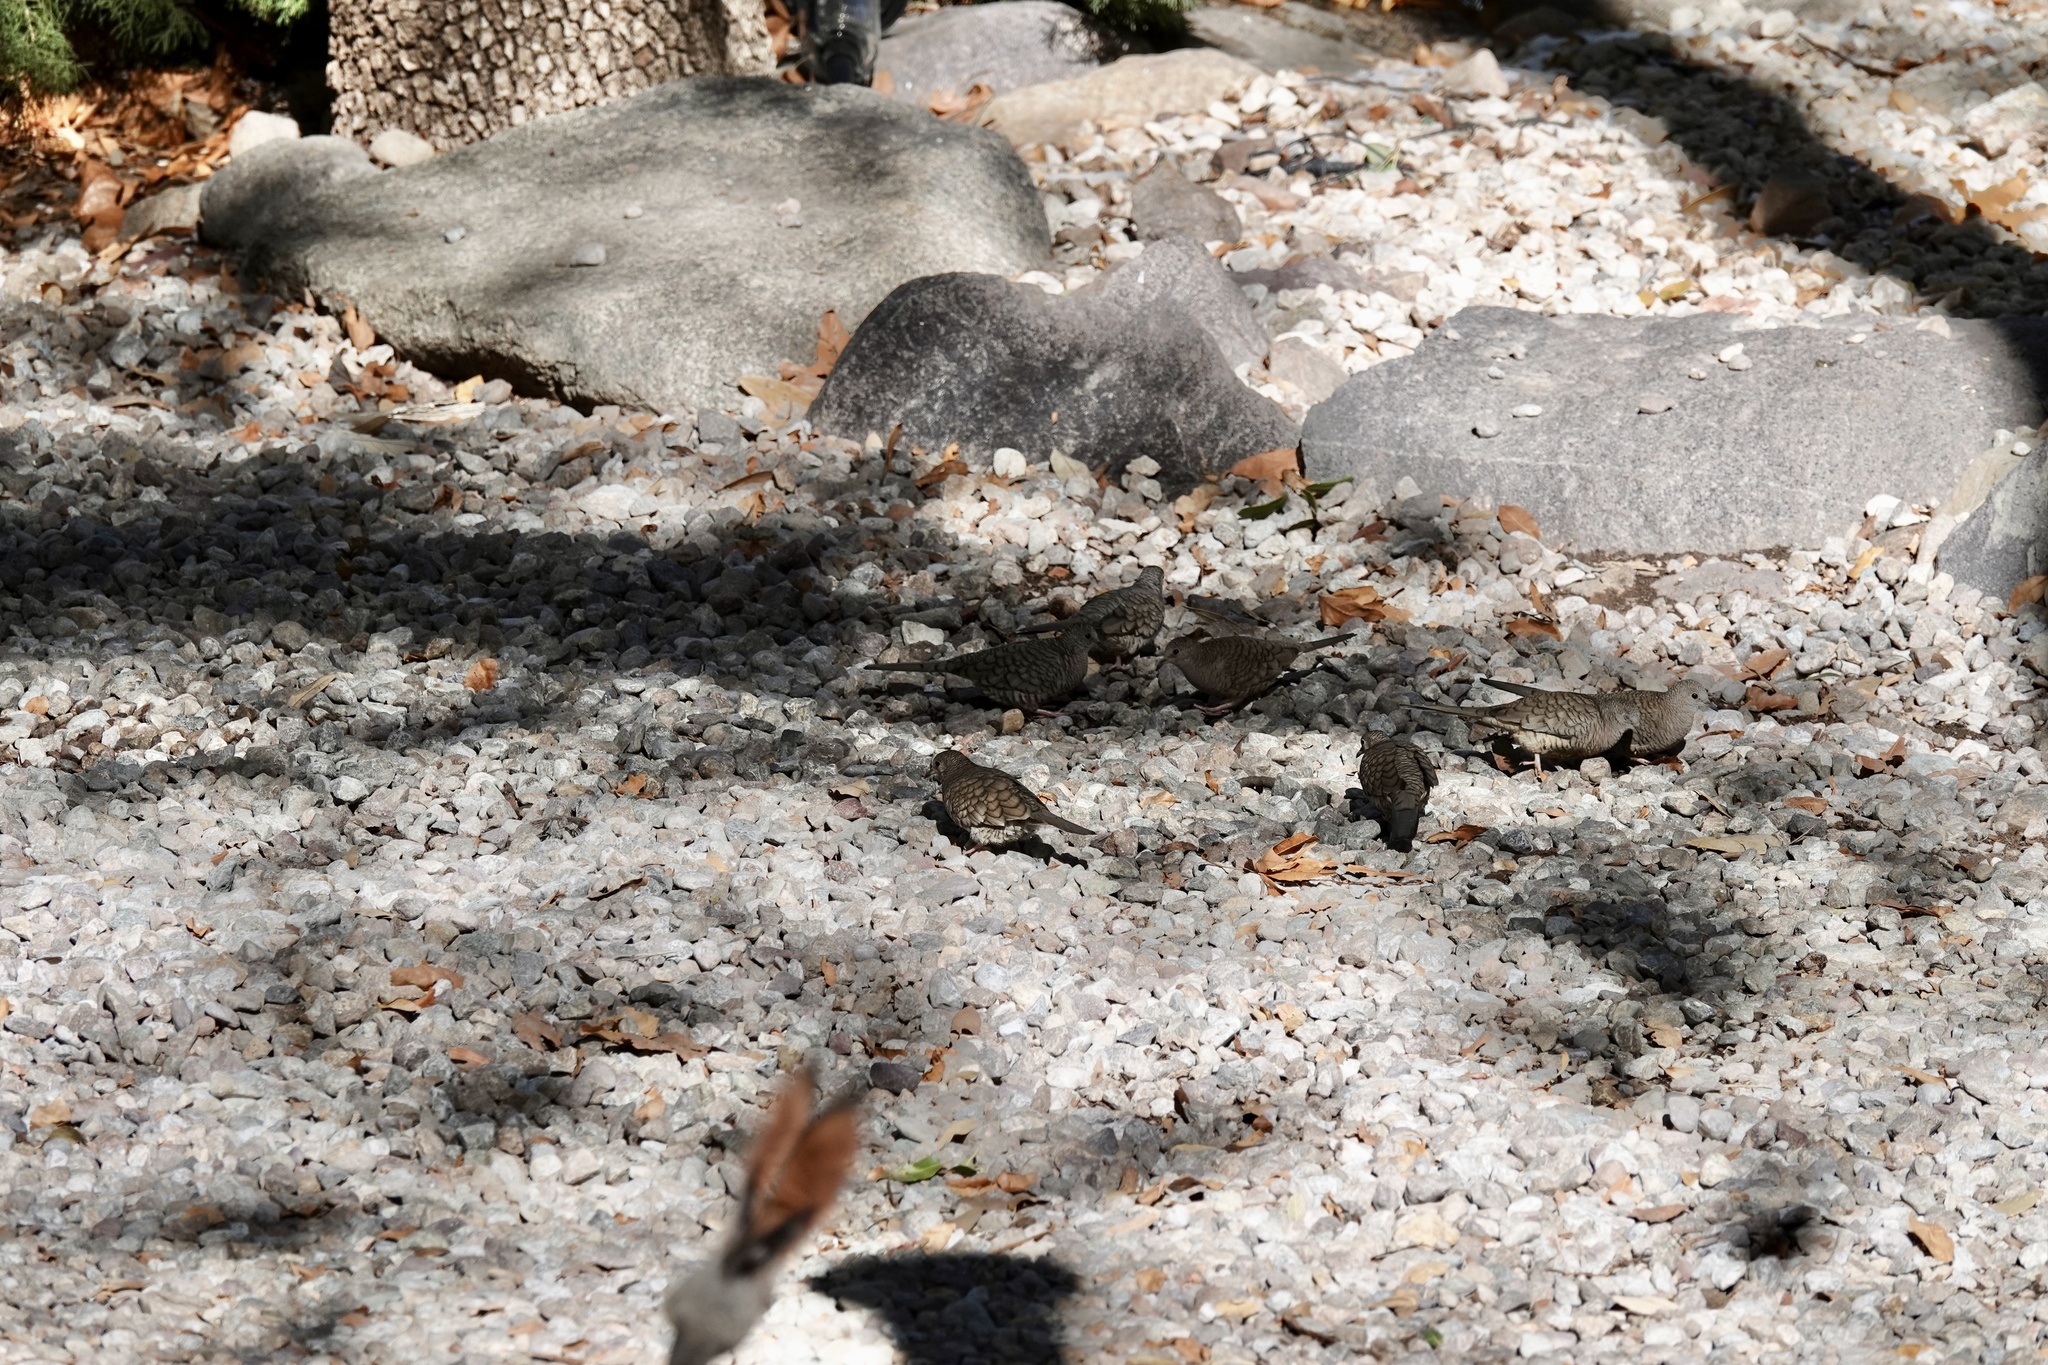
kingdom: Animalia
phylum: Chordata
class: Aves
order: Columbiformes
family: Columbidae
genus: Columbina
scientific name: Columbina inca
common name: Inca dove
